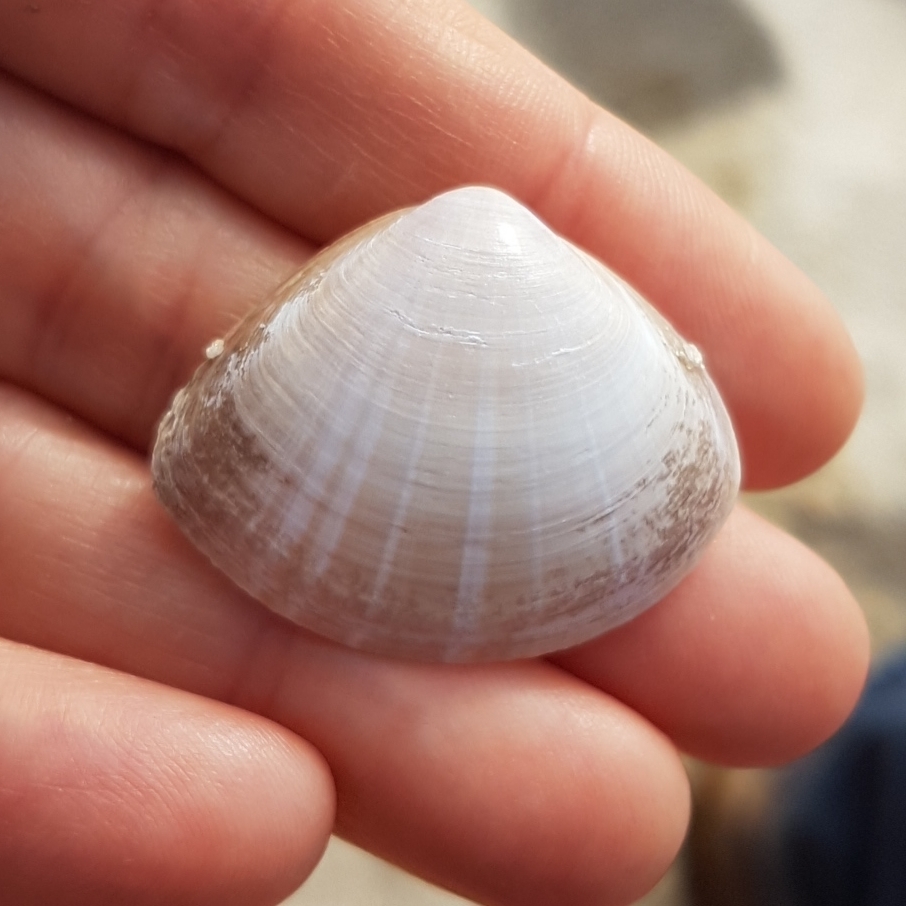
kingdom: Animalia
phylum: Mollusca
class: Bivalvia
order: Venerida
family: Mactridae
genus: Mactra
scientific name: Mactra stultorum
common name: Rayed trough shell
